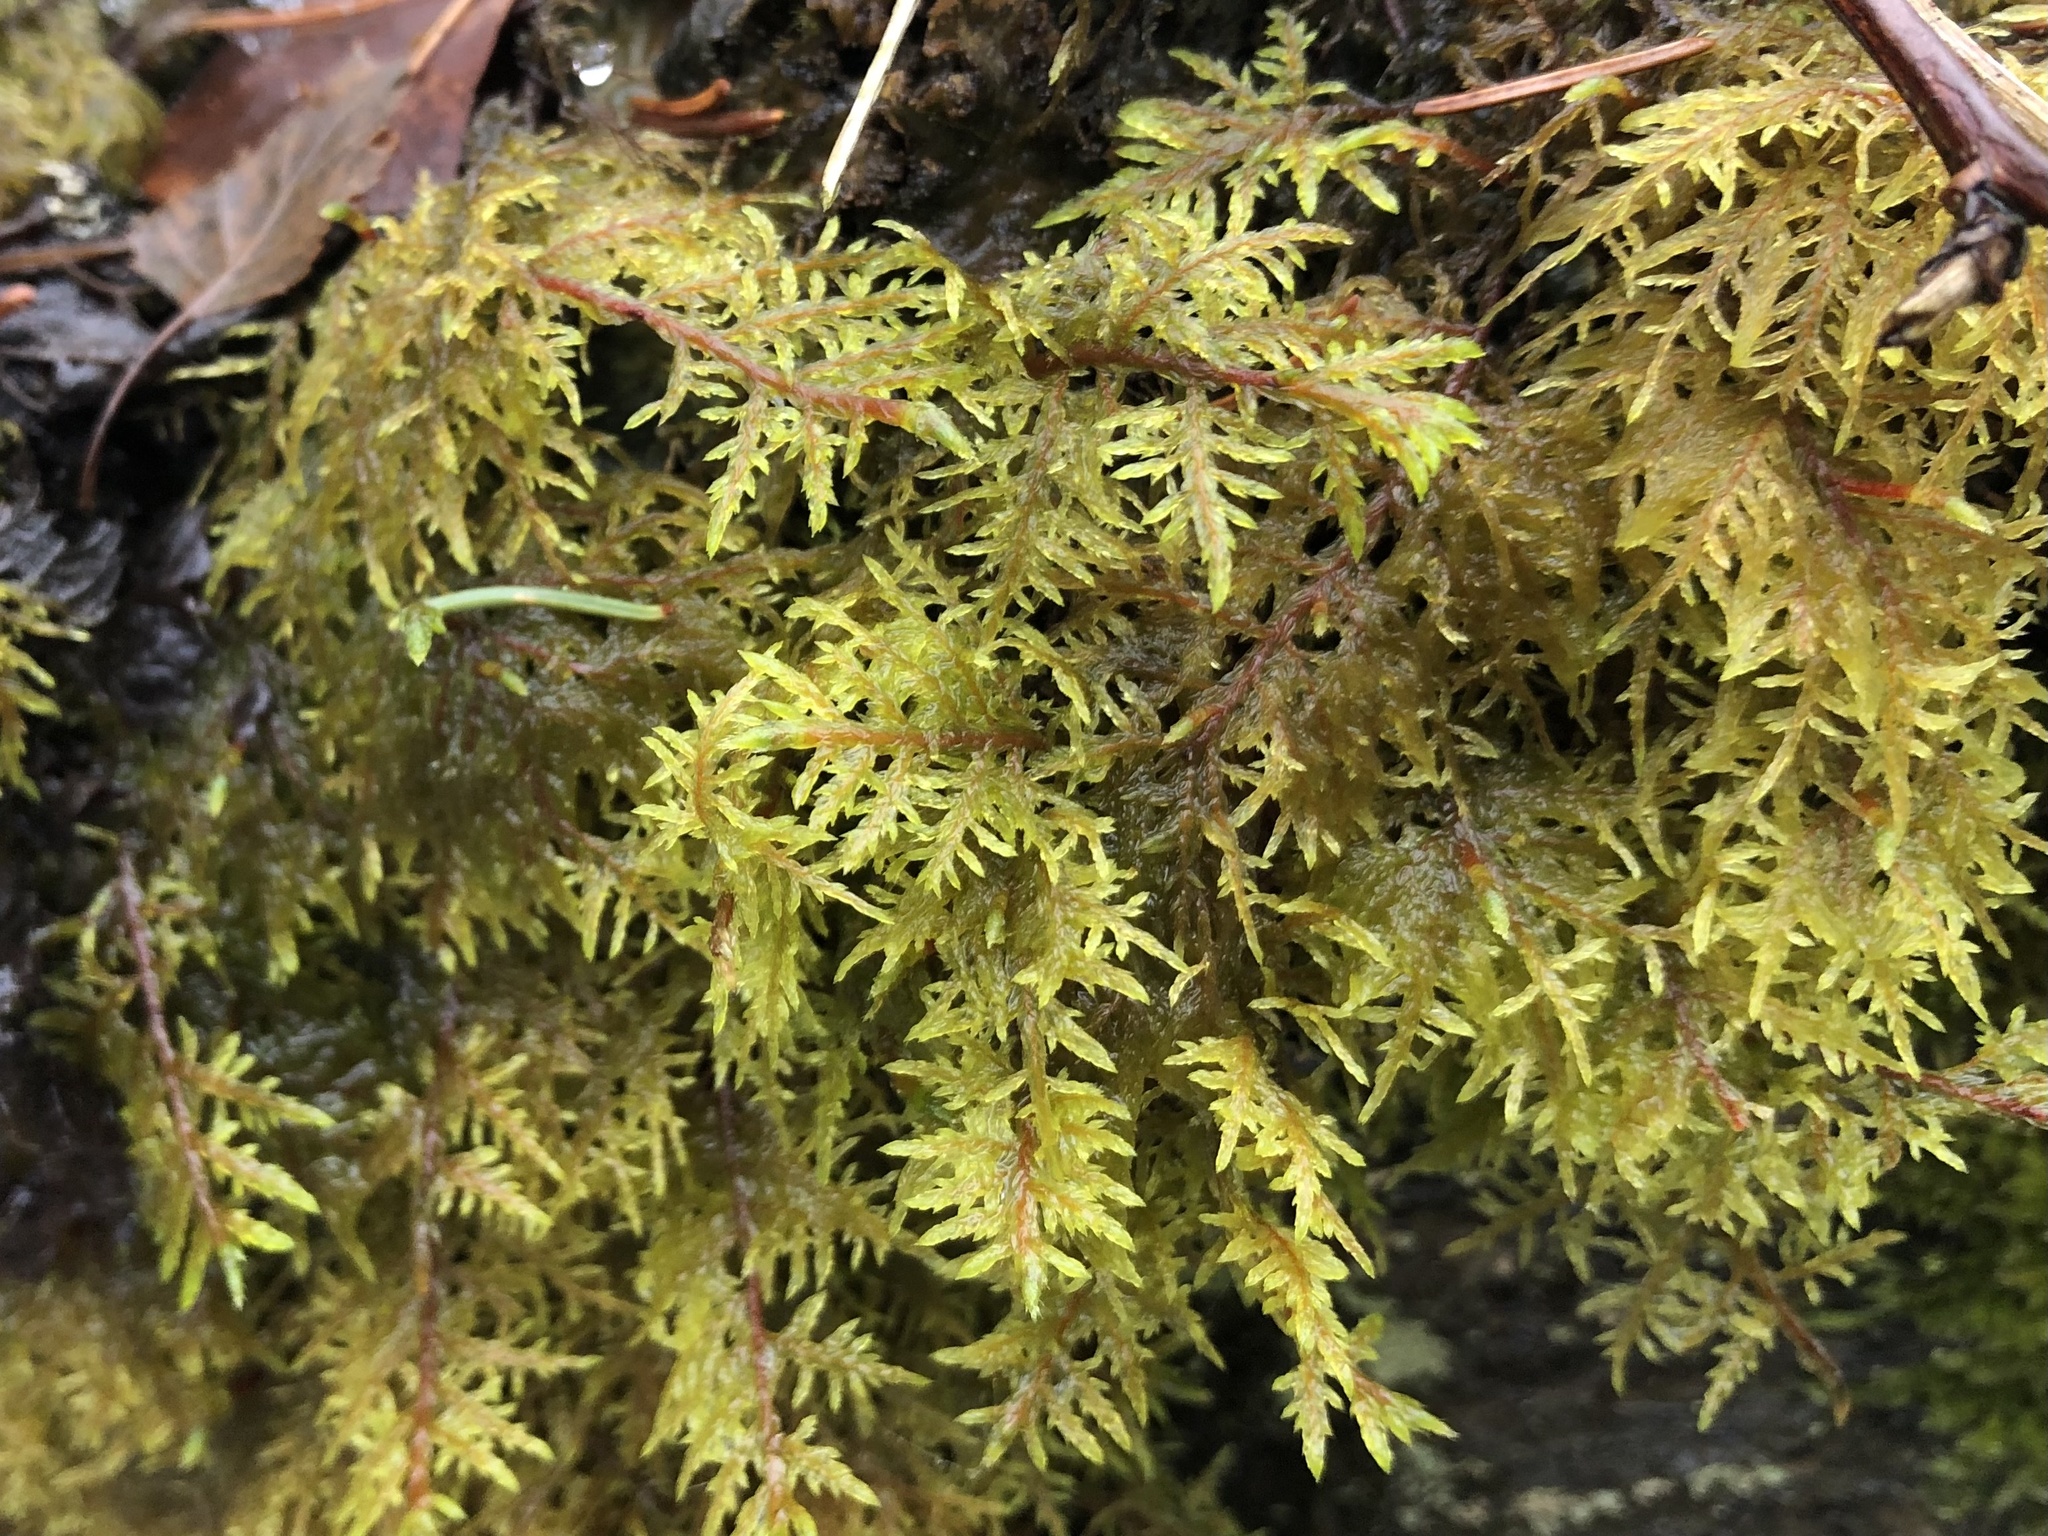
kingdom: Plantae
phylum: Bryophyta
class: Bryopsida
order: Hypnales
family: Hylocomiaceae
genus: Hylocomium
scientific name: Hylocomium splendens
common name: Stairstep moss
